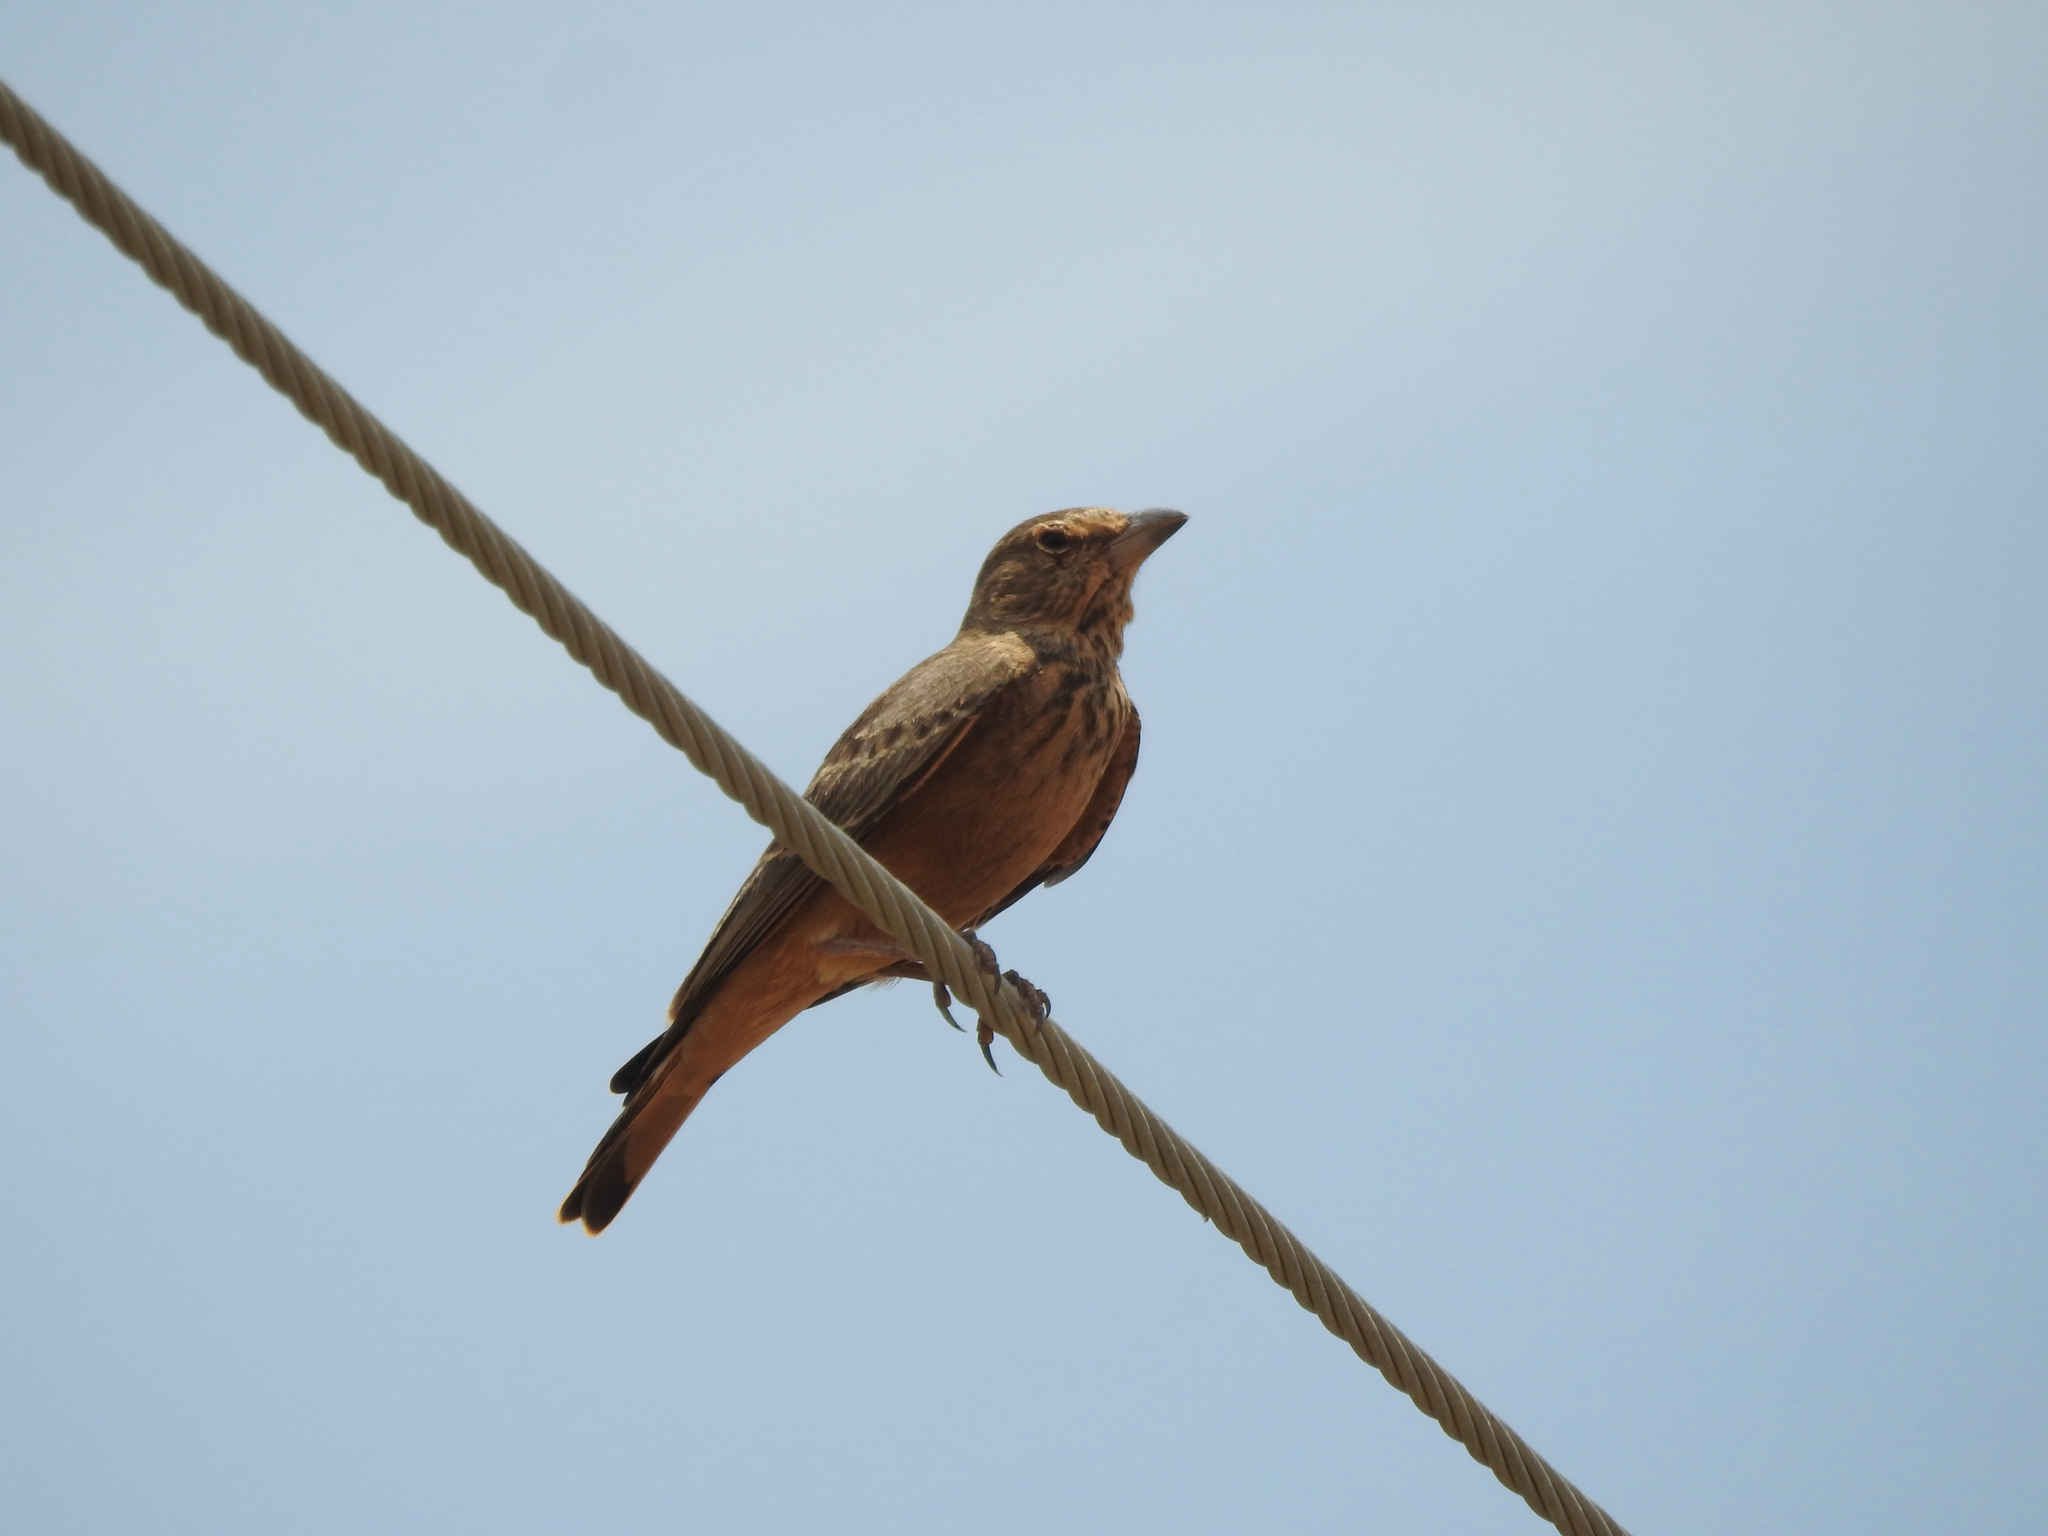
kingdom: Animalia
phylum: Chordata
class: Aves
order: Passeriformes
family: Alaudidae
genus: Ammomanes
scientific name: Ammomanes phoenicura
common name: Rufous-tailed lark
